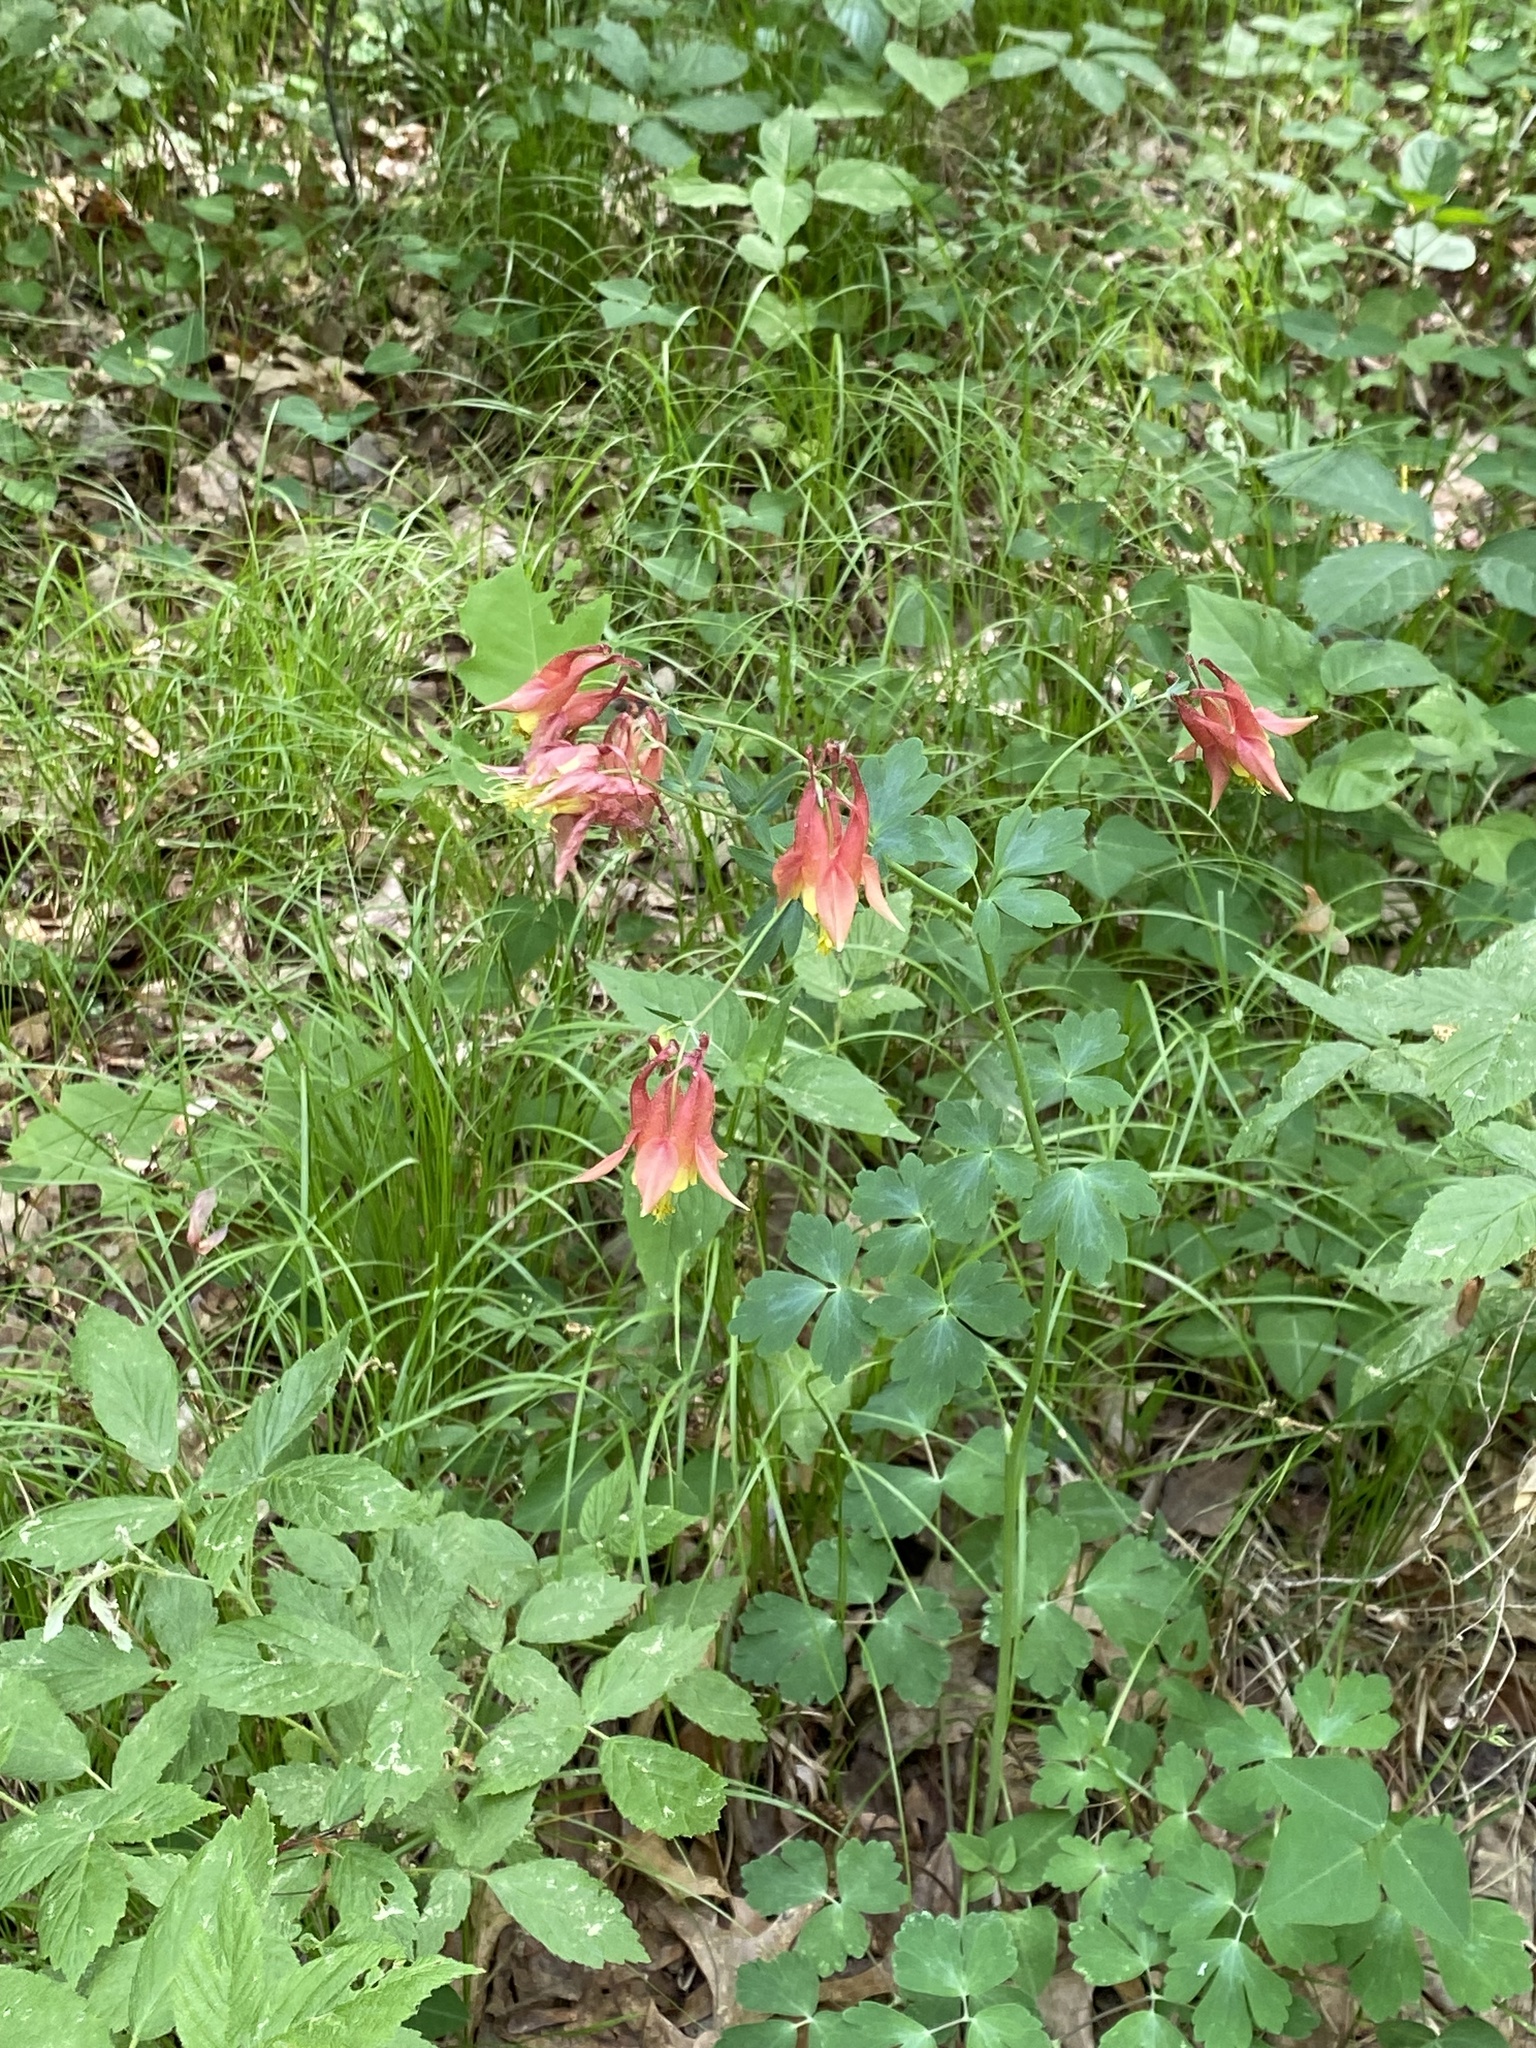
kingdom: Plantae
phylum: Tracheophyta
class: Magnoliopsida
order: Ranunculales
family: Ranunculaceae
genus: Aquilegia
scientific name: Aquilegia canadensis
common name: American columbine
